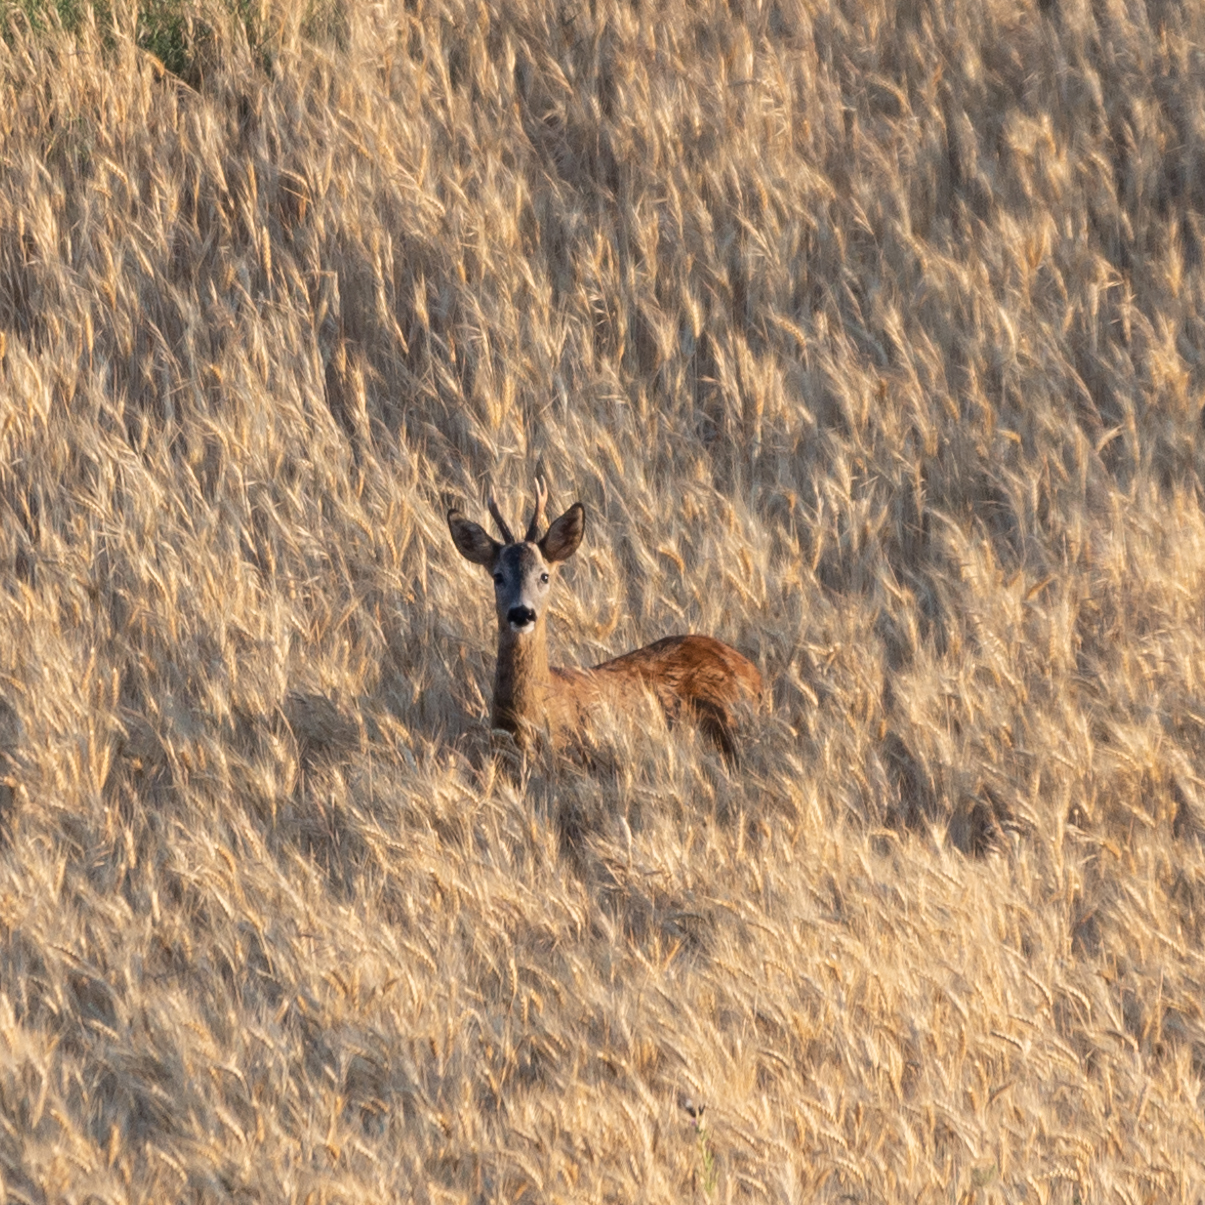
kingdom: Animalia
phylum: Chordata
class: Mammalia
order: Artiodactyla
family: Cervidae
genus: Capreolus
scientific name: Capreolus capreolus
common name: Western roe deer
